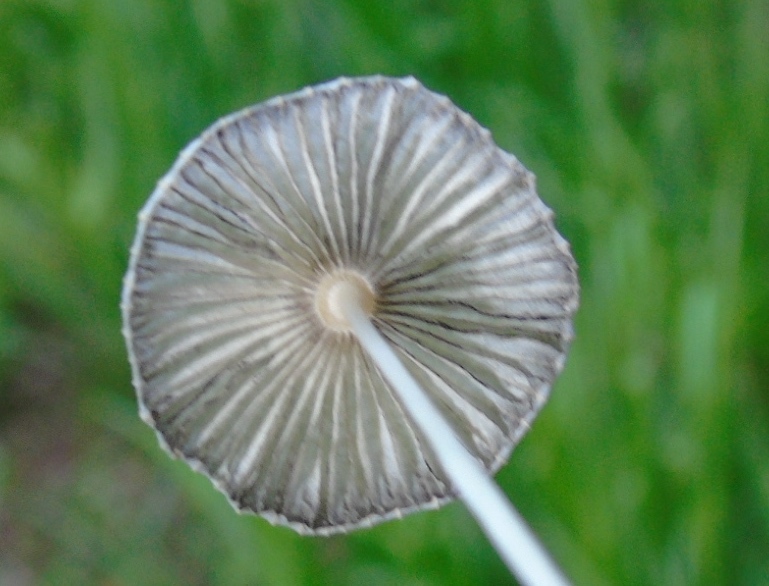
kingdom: Fungi
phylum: Basidiomycota
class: Agaricomycetes
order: Agaricales
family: Psathyrellaceae
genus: Parasola
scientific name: Parasola
